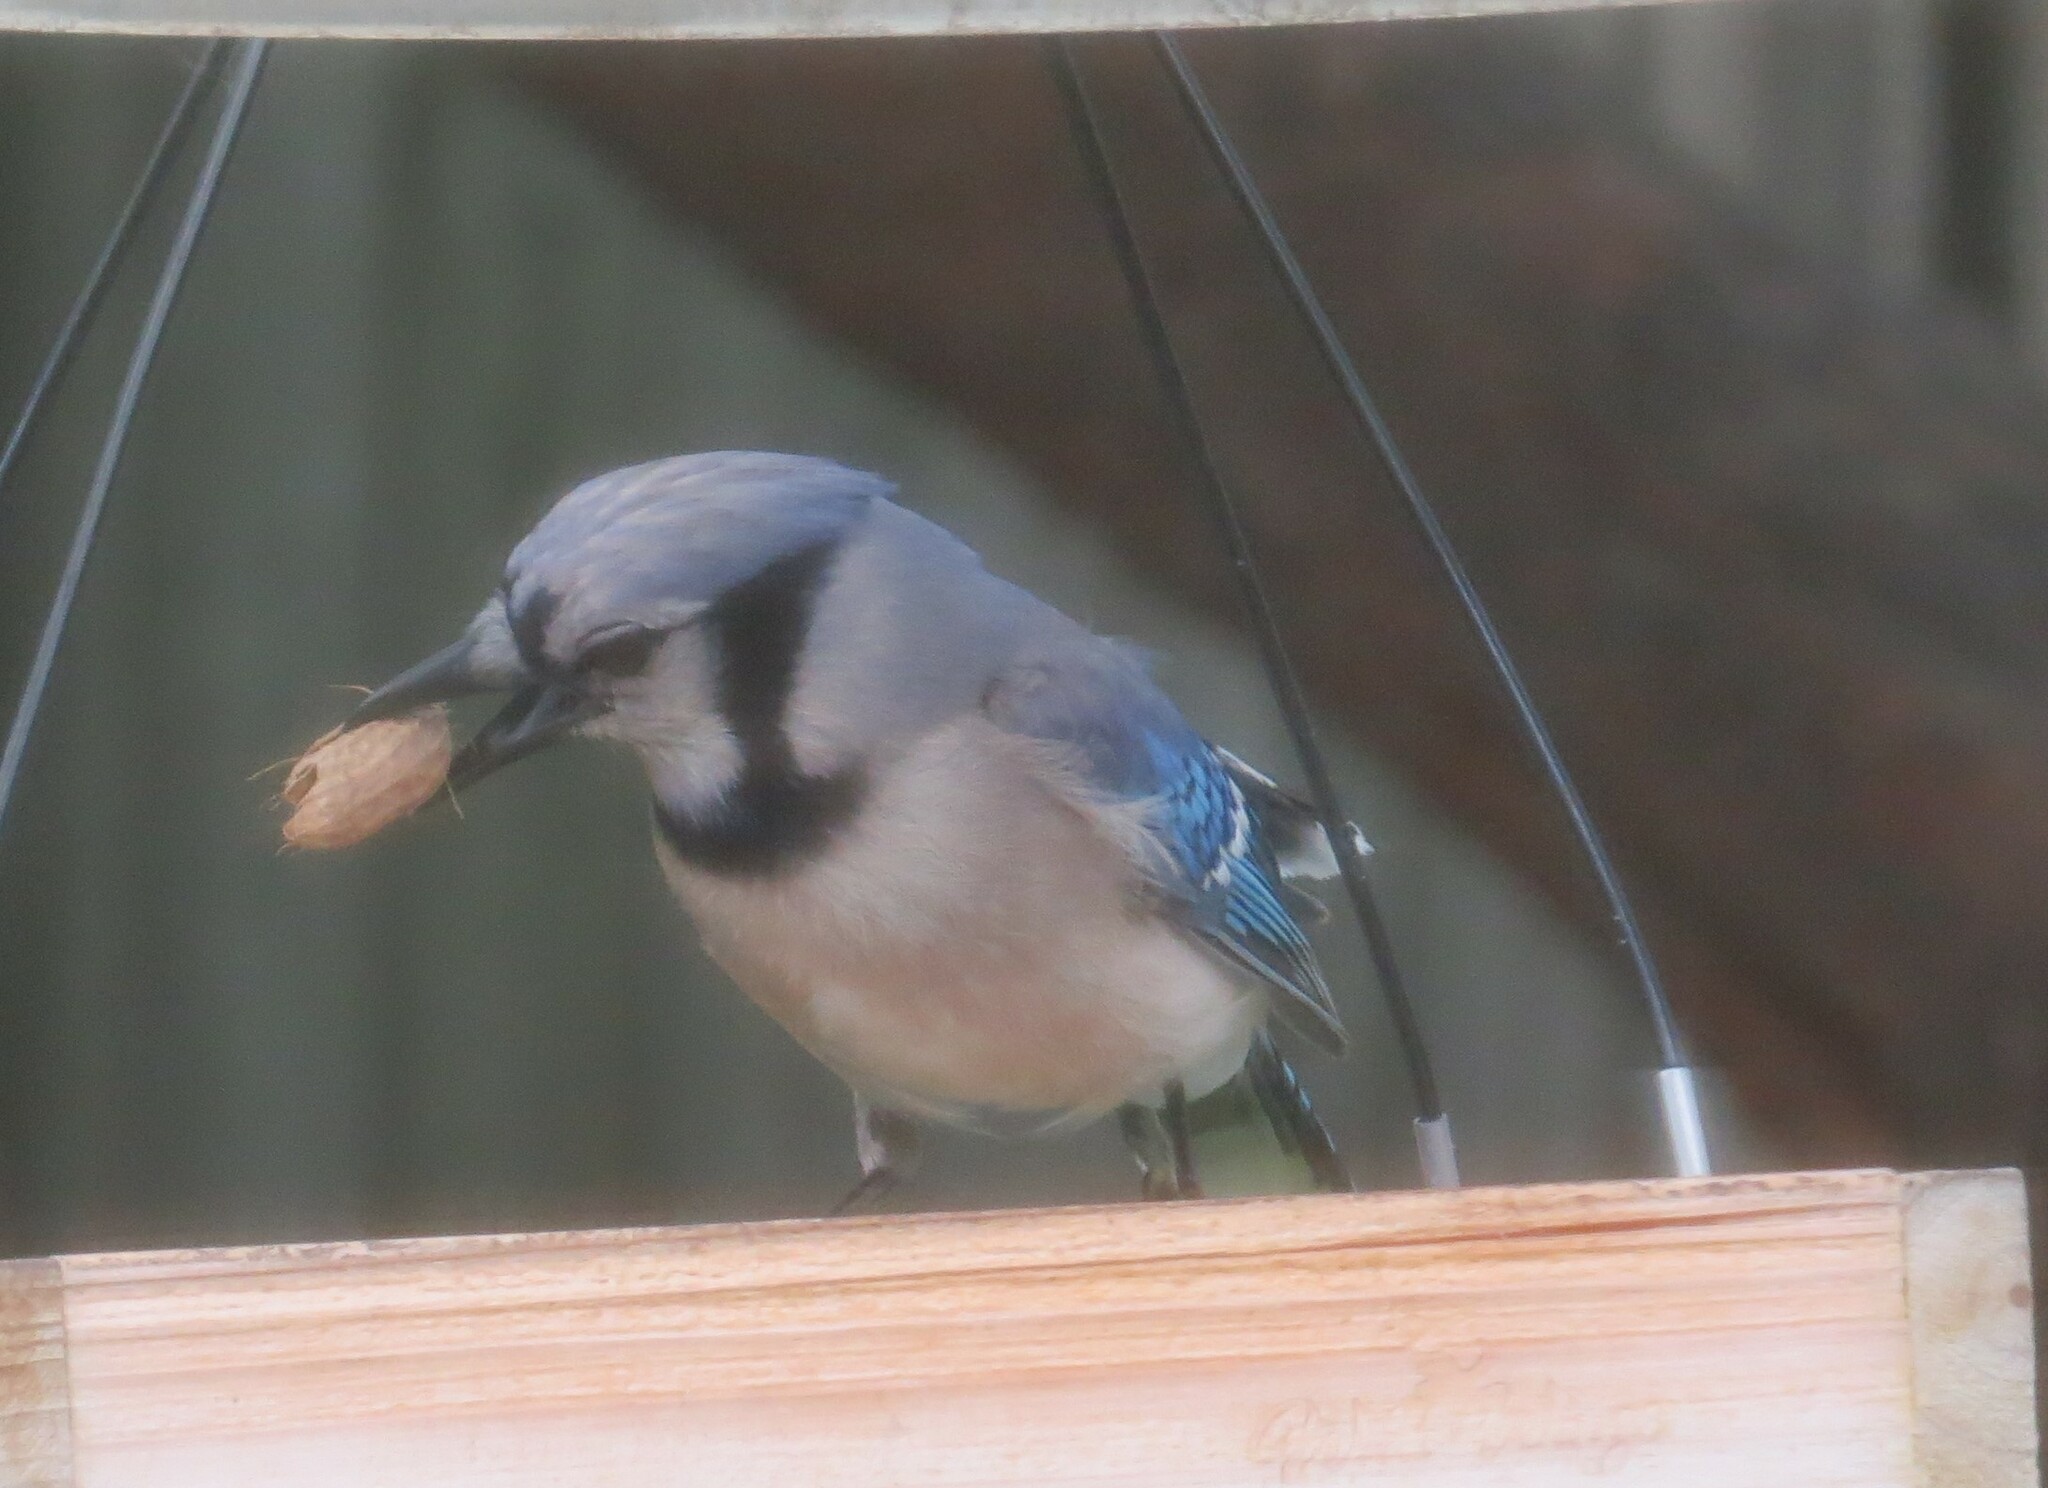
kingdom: Animalia
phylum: Chordata
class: Aves
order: Passeriformes
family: Corvidae
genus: Cyanocitta
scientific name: Cyanocitta cristata
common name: Blue jay
